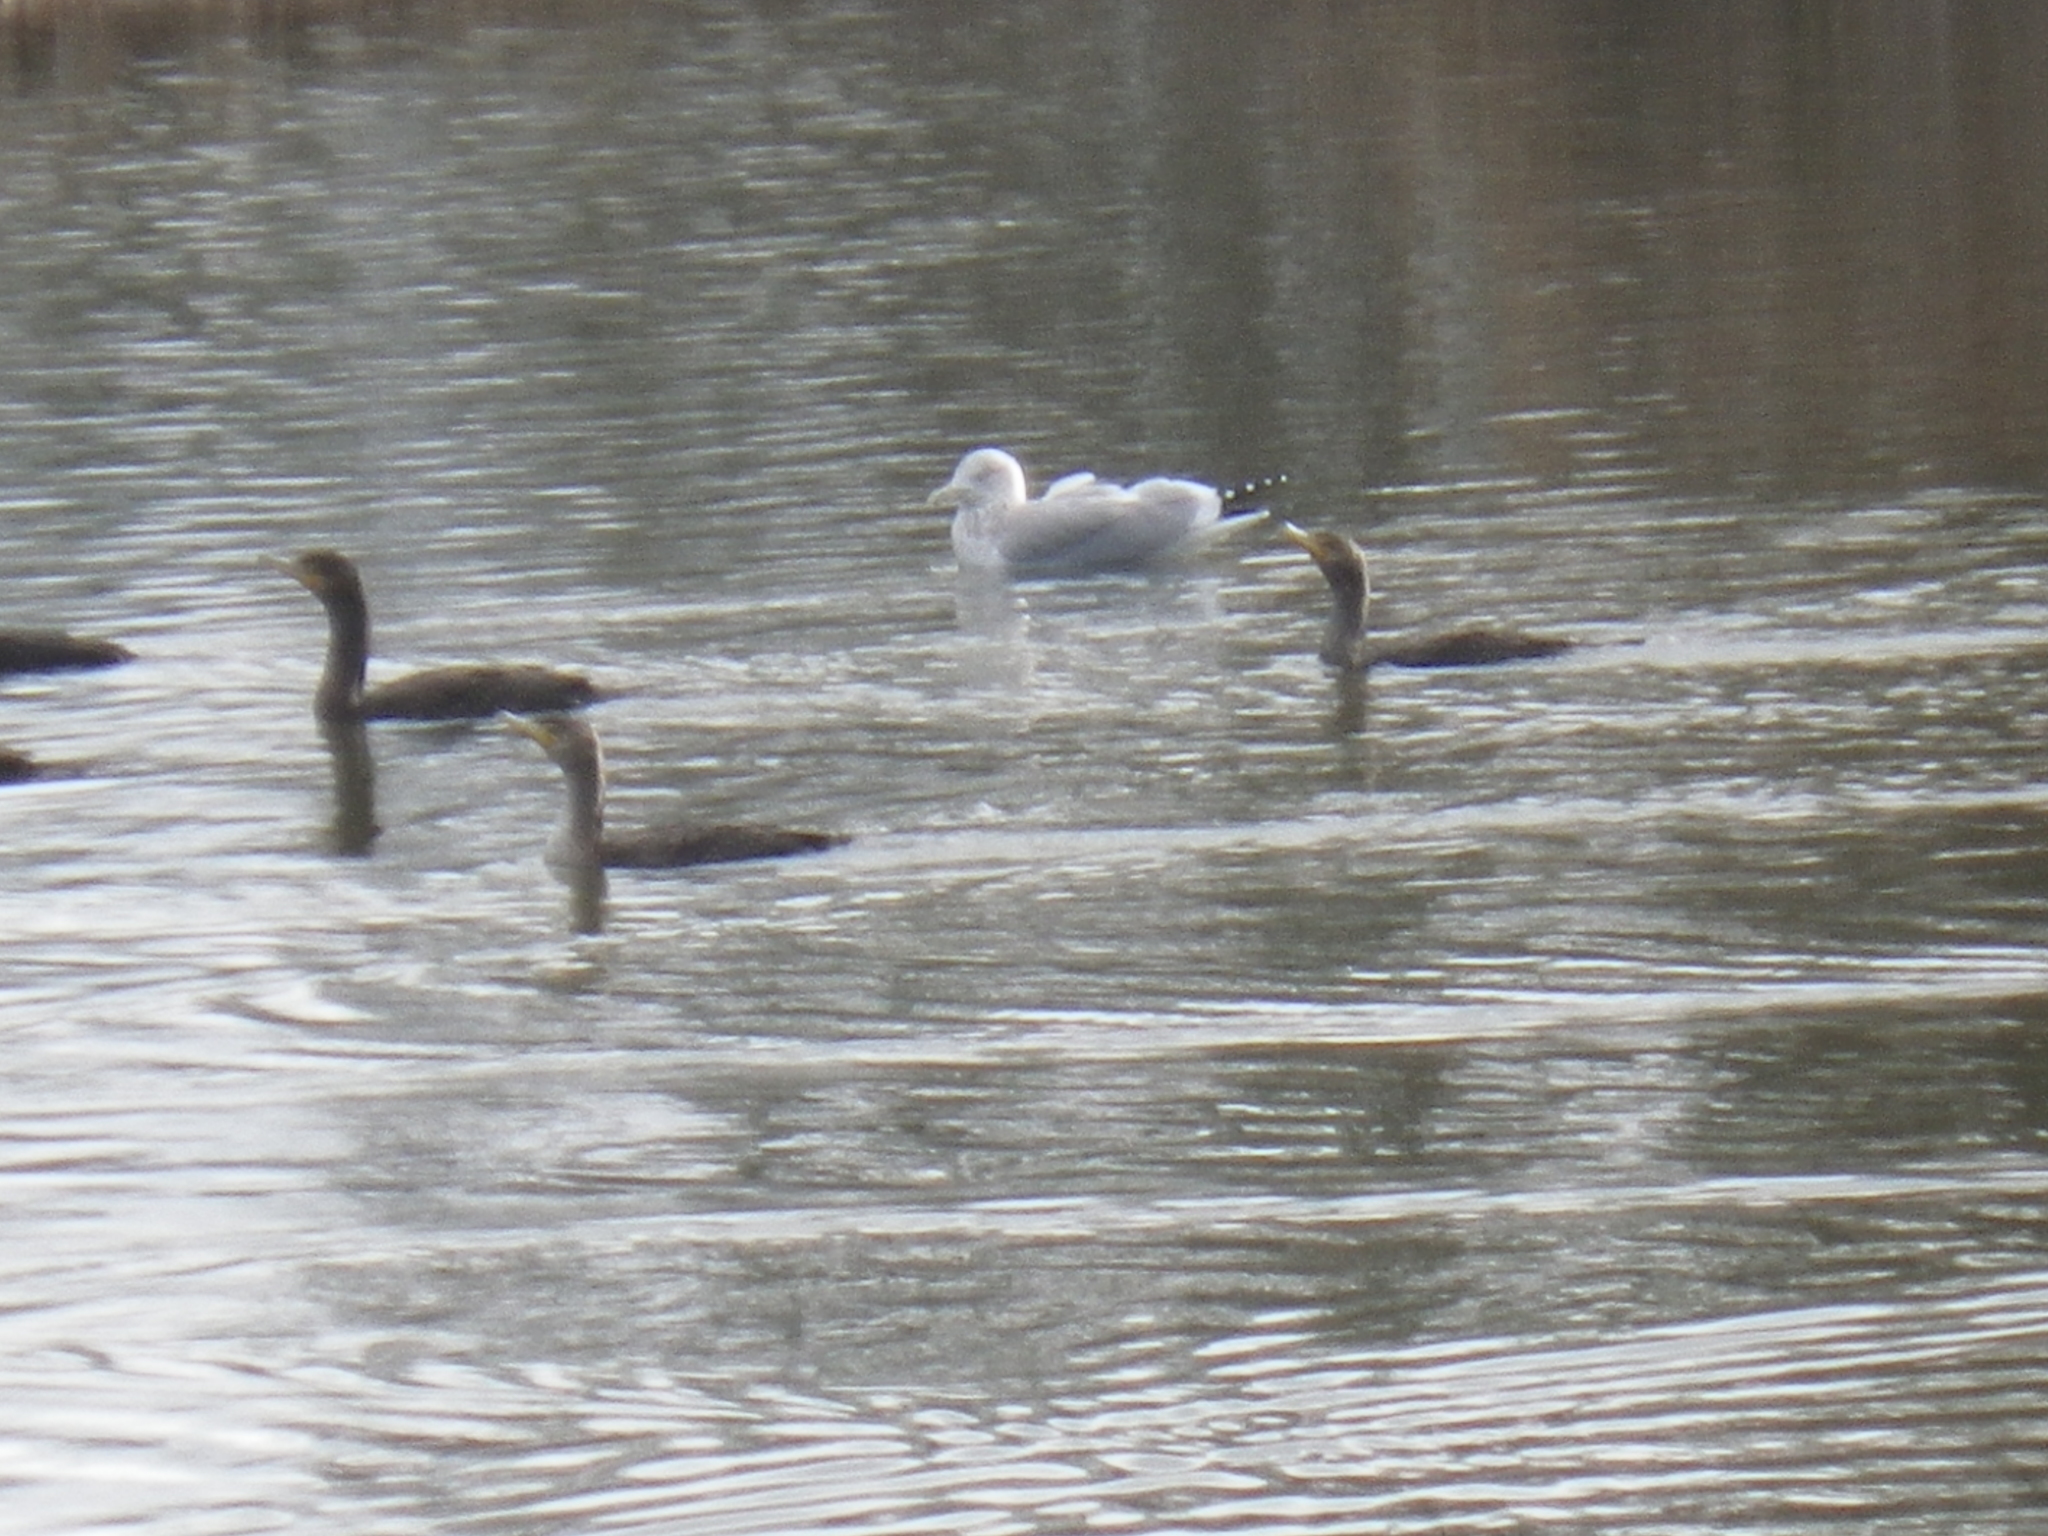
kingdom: Animalia
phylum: Chordata
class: Aves
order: Charadriiformes
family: Laridae
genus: Larus
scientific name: Larus argentatus
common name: Herring gull
